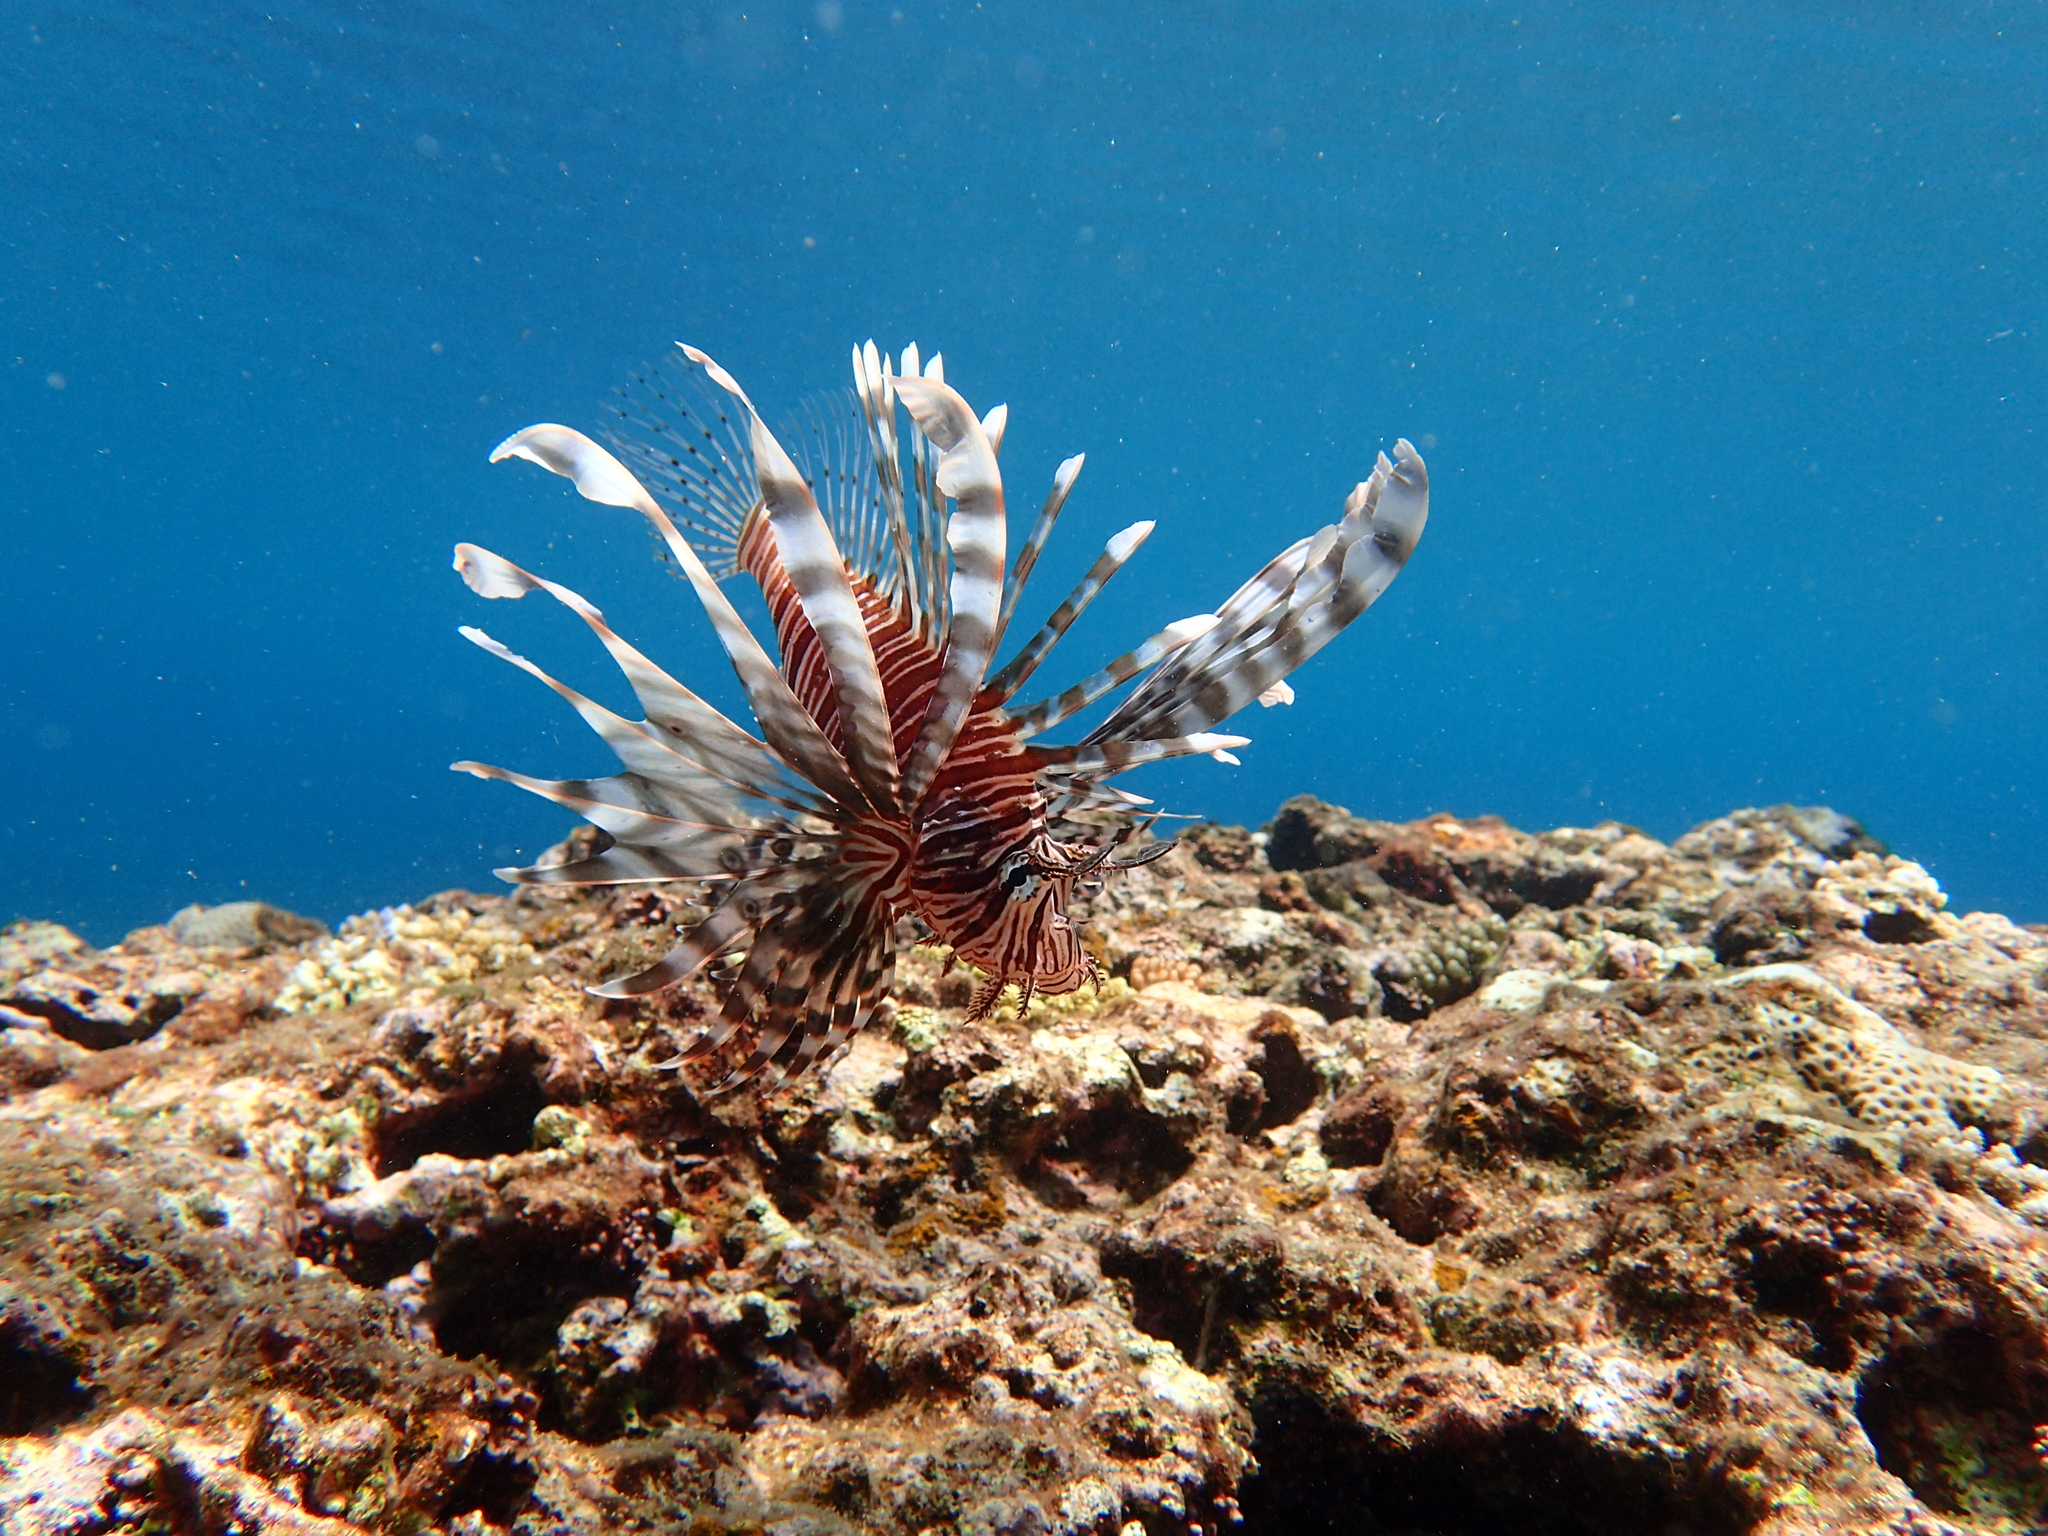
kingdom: Animalia
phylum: Chordata
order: Scorpaeniformes
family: Scorpaenidae
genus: Pterois
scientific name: Pterois volitans
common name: Lionfish
